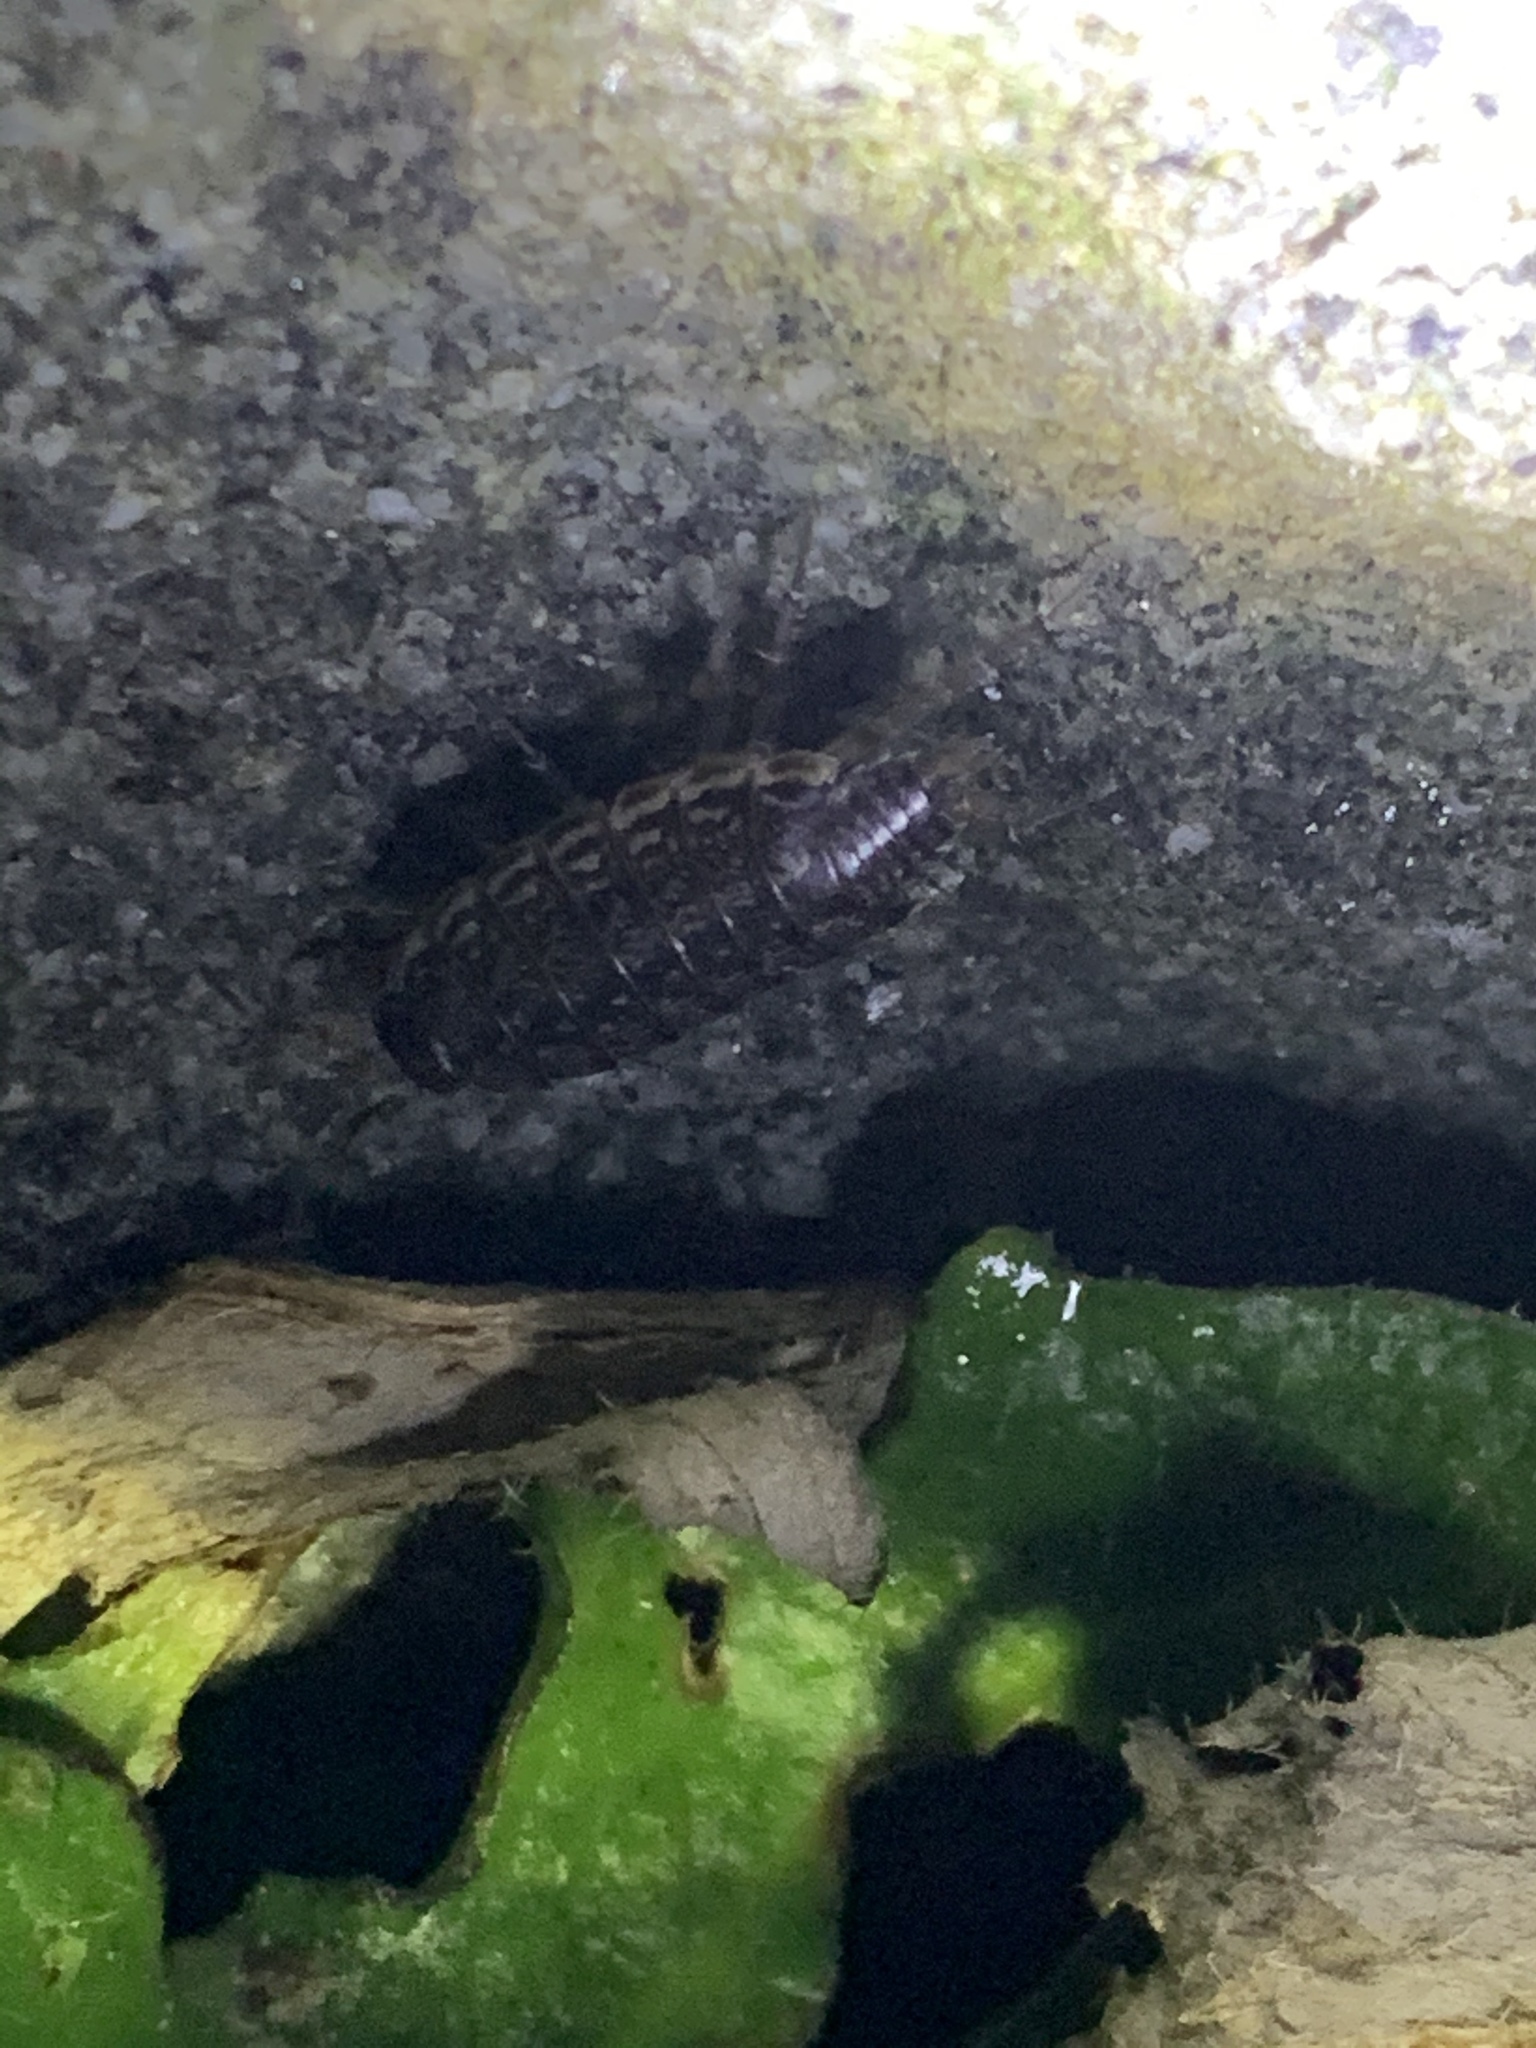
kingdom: Animalia
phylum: Arthropoda
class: Malacostraca
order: Isopoda
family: Philosciidae
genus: Philoscia
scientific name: Philoscia muscorum
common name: Common striped woodlouse
